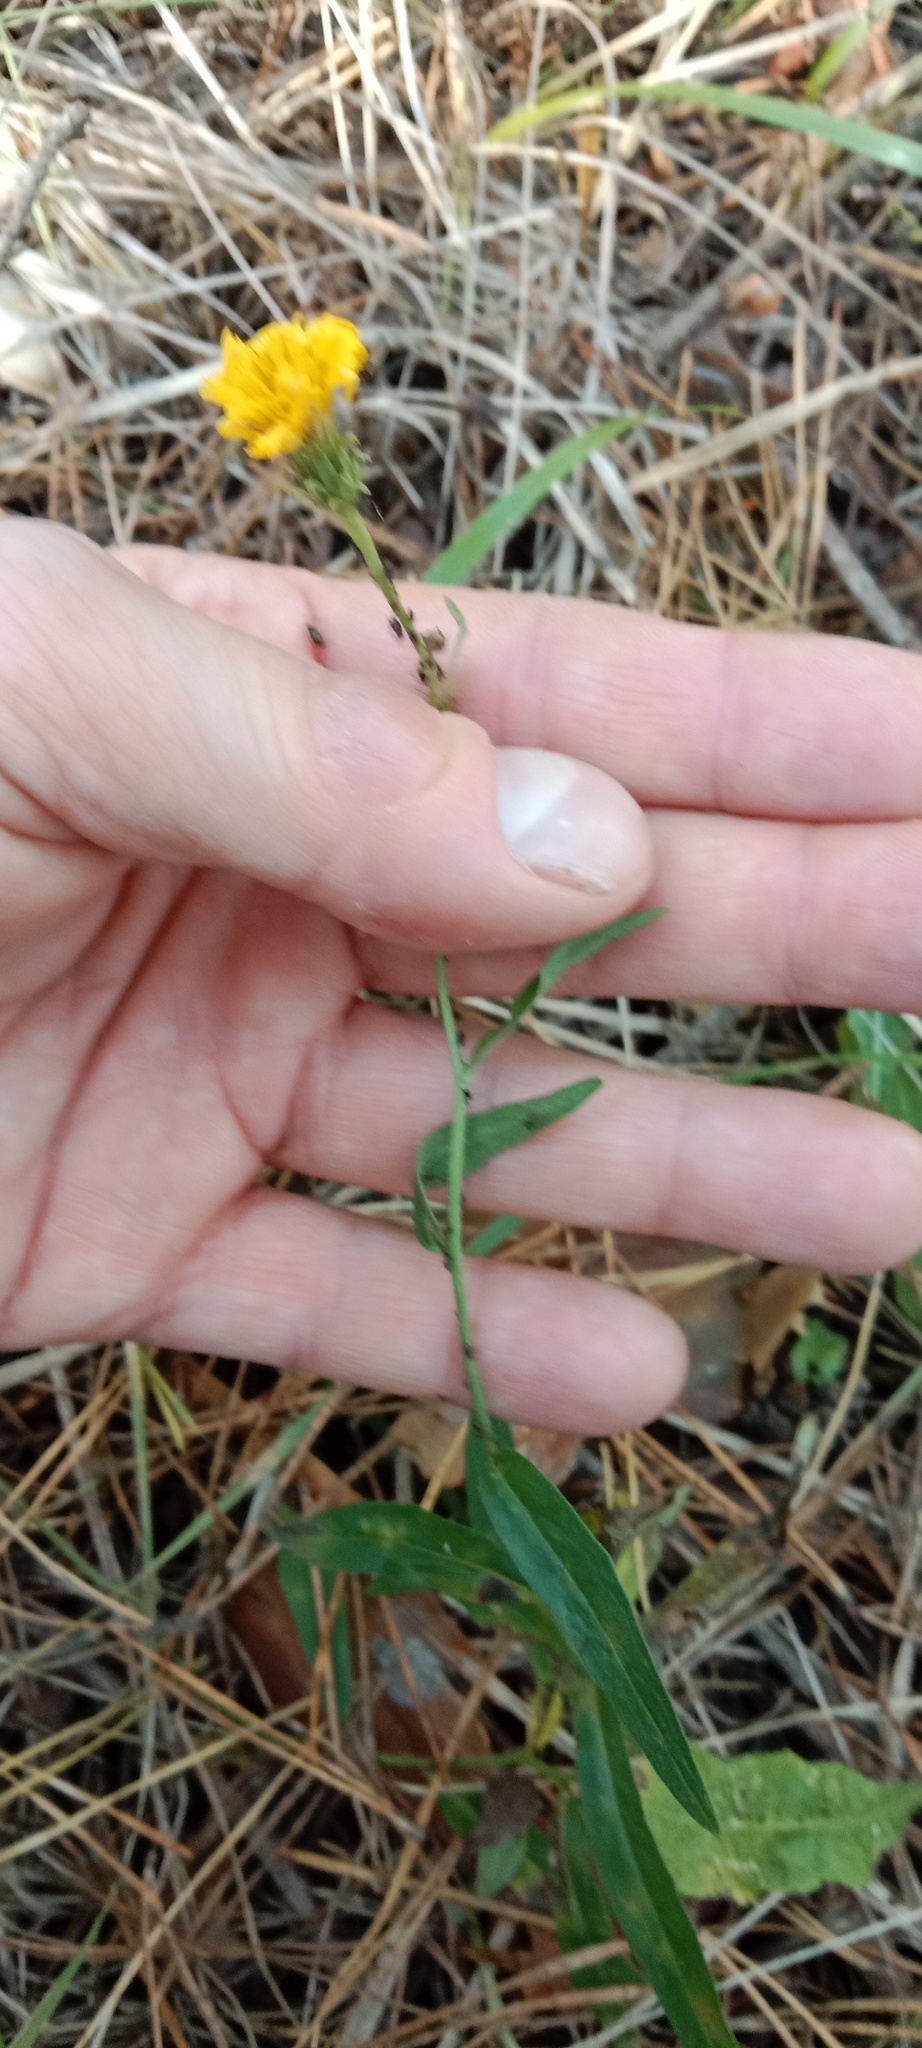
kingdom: Plantae
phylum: Tracheophyta
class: Magnoliopsida
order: Asterales
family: Asteraceae
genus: Hieracium
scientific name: Hieracium umbellatum
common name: Northern hawkweed
